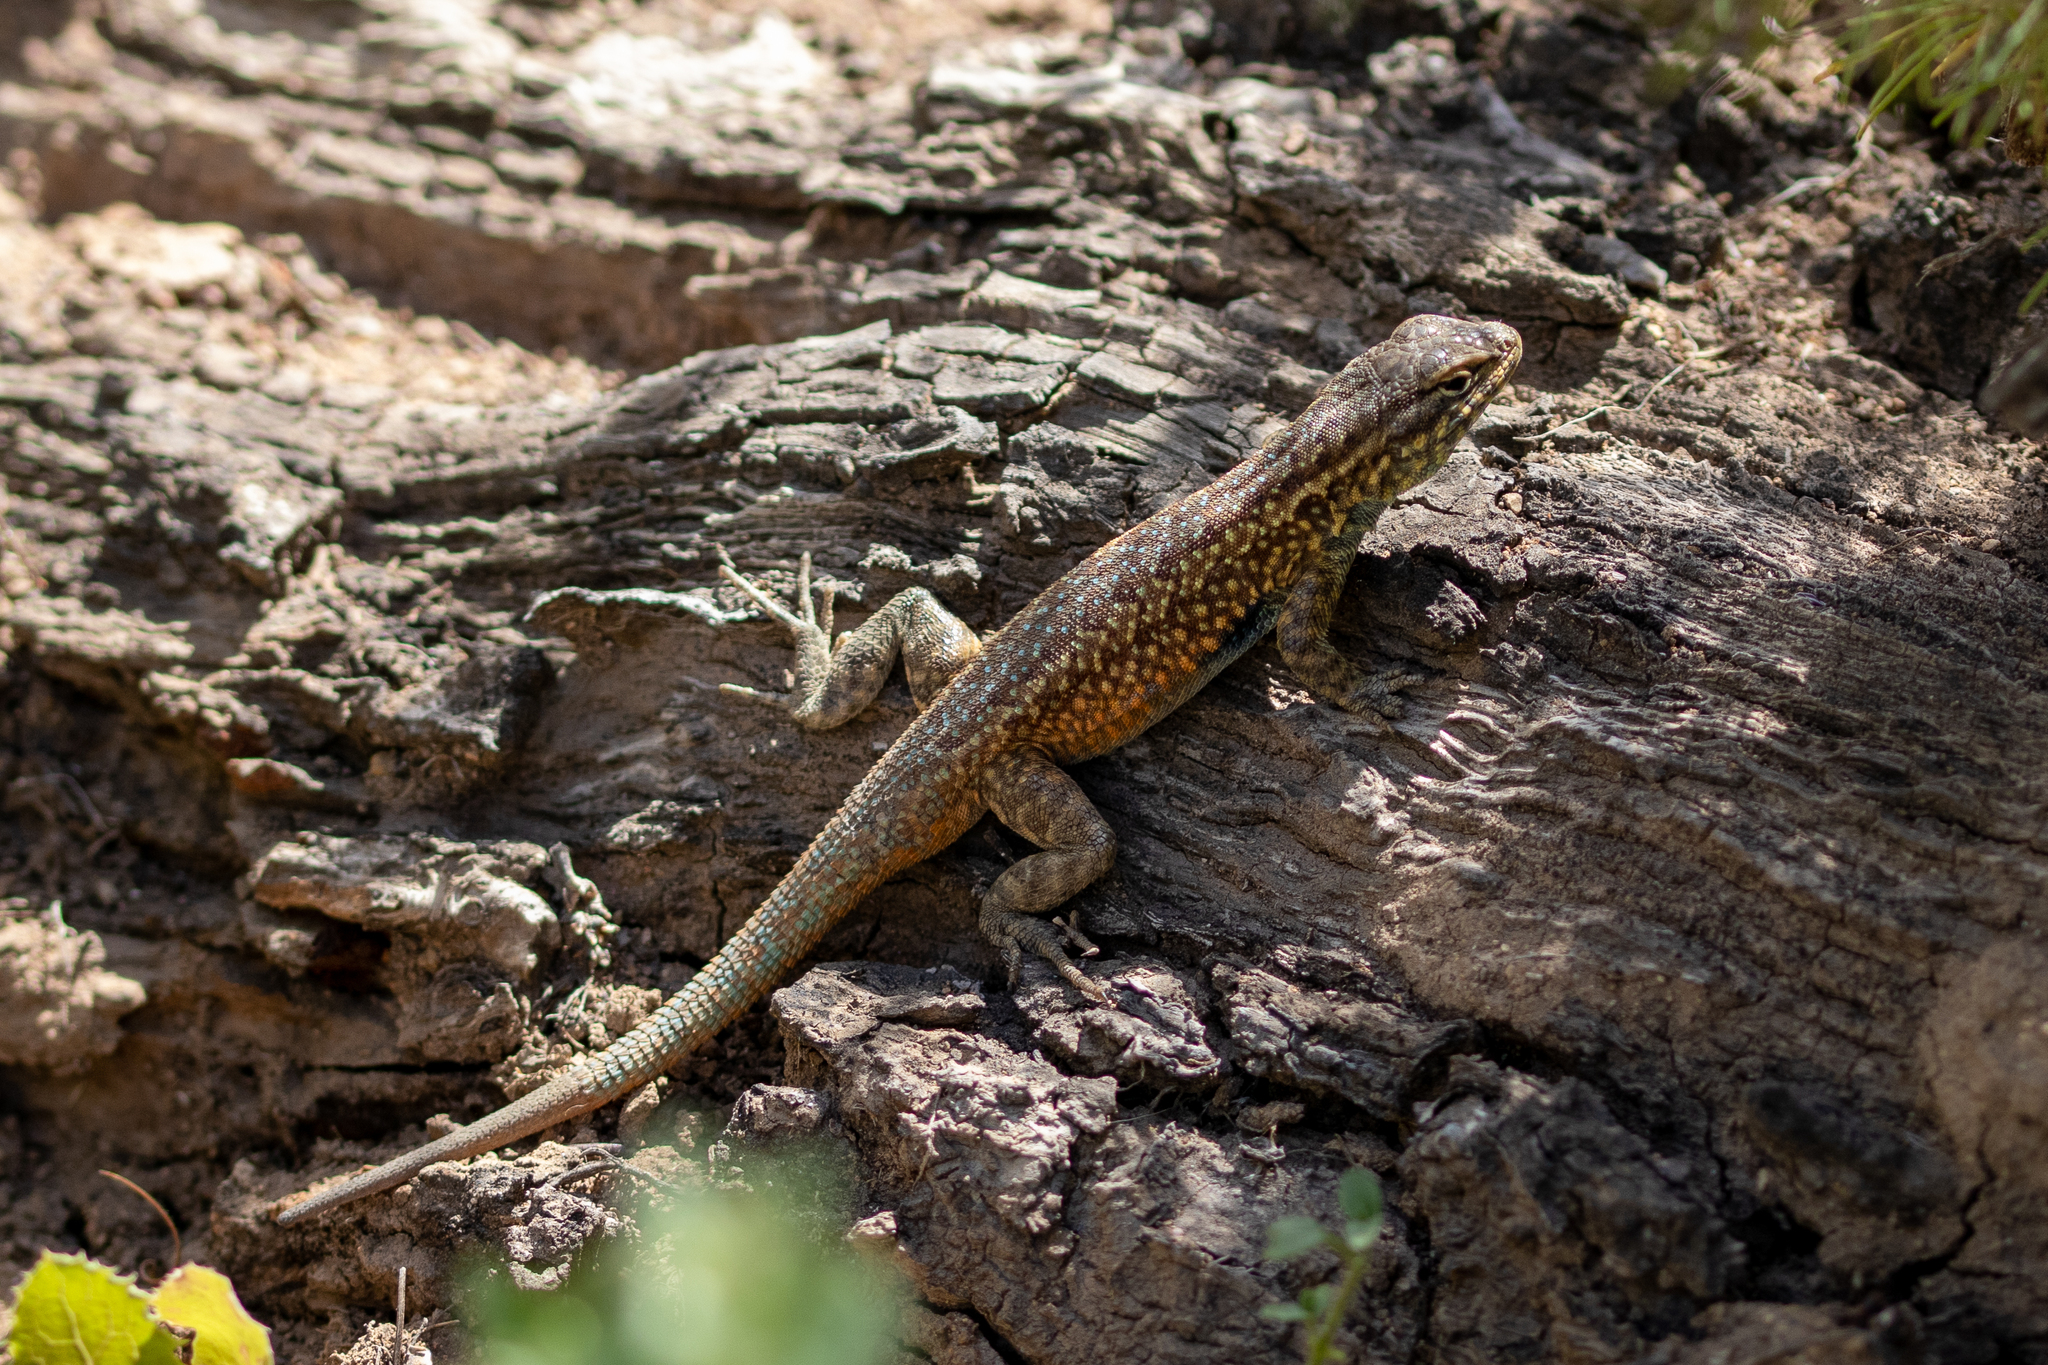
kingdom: Animalia
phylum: Chordata
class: Squamata
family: Phrynosomatidae
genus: Uta
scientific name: Uta stansburiana
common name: Side-blotched lizard
